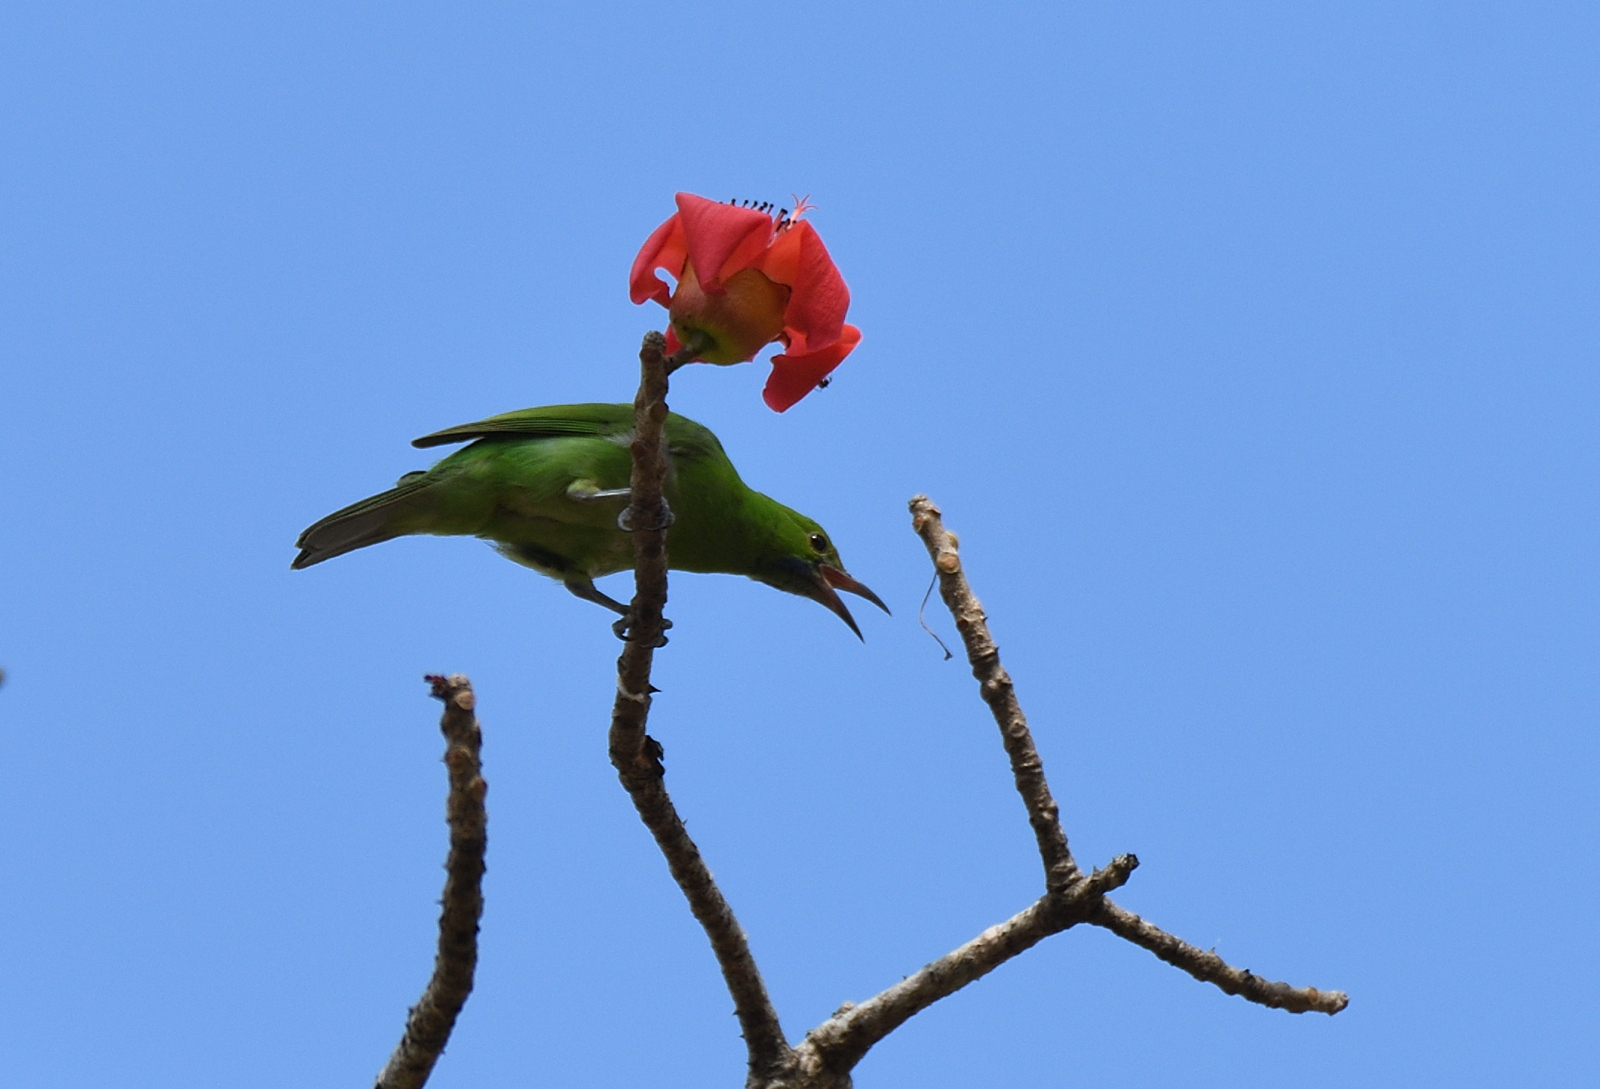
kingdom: Animalia
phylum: Chordata
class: Aves
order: Passeriformes
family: Chloropseidae
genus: Chloropsis
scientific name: Chloropsis jerdoni
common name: Jerdon's leafbird
